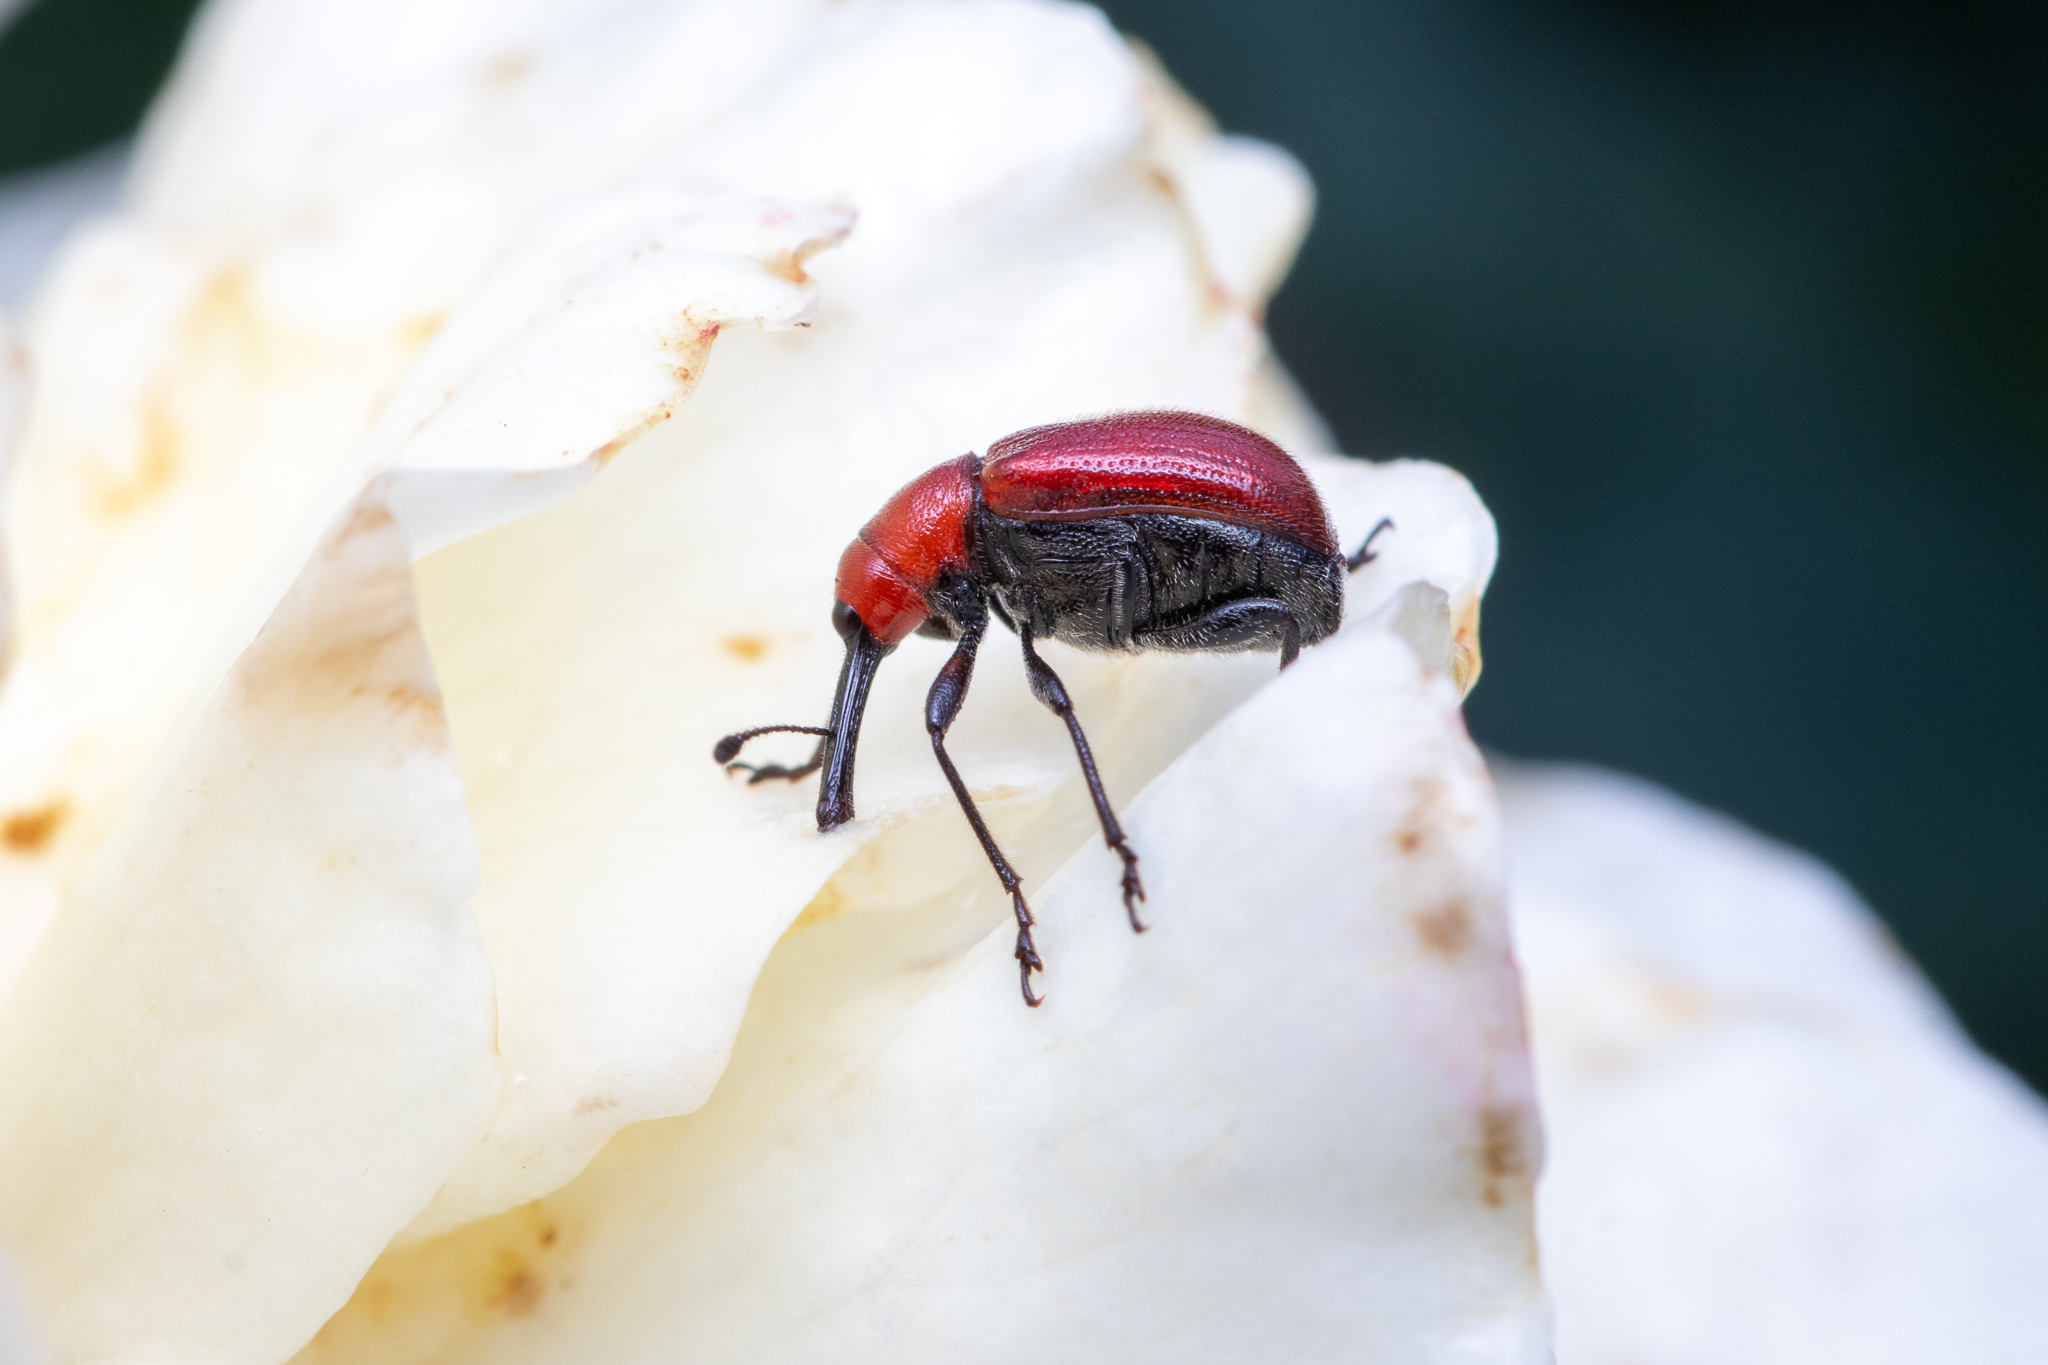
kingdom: Animalia
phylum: Arthropoda
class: Insecta
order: Coleoptera
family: Attelabidae
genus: Merhynchites
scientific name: Merhynchites bicolor
